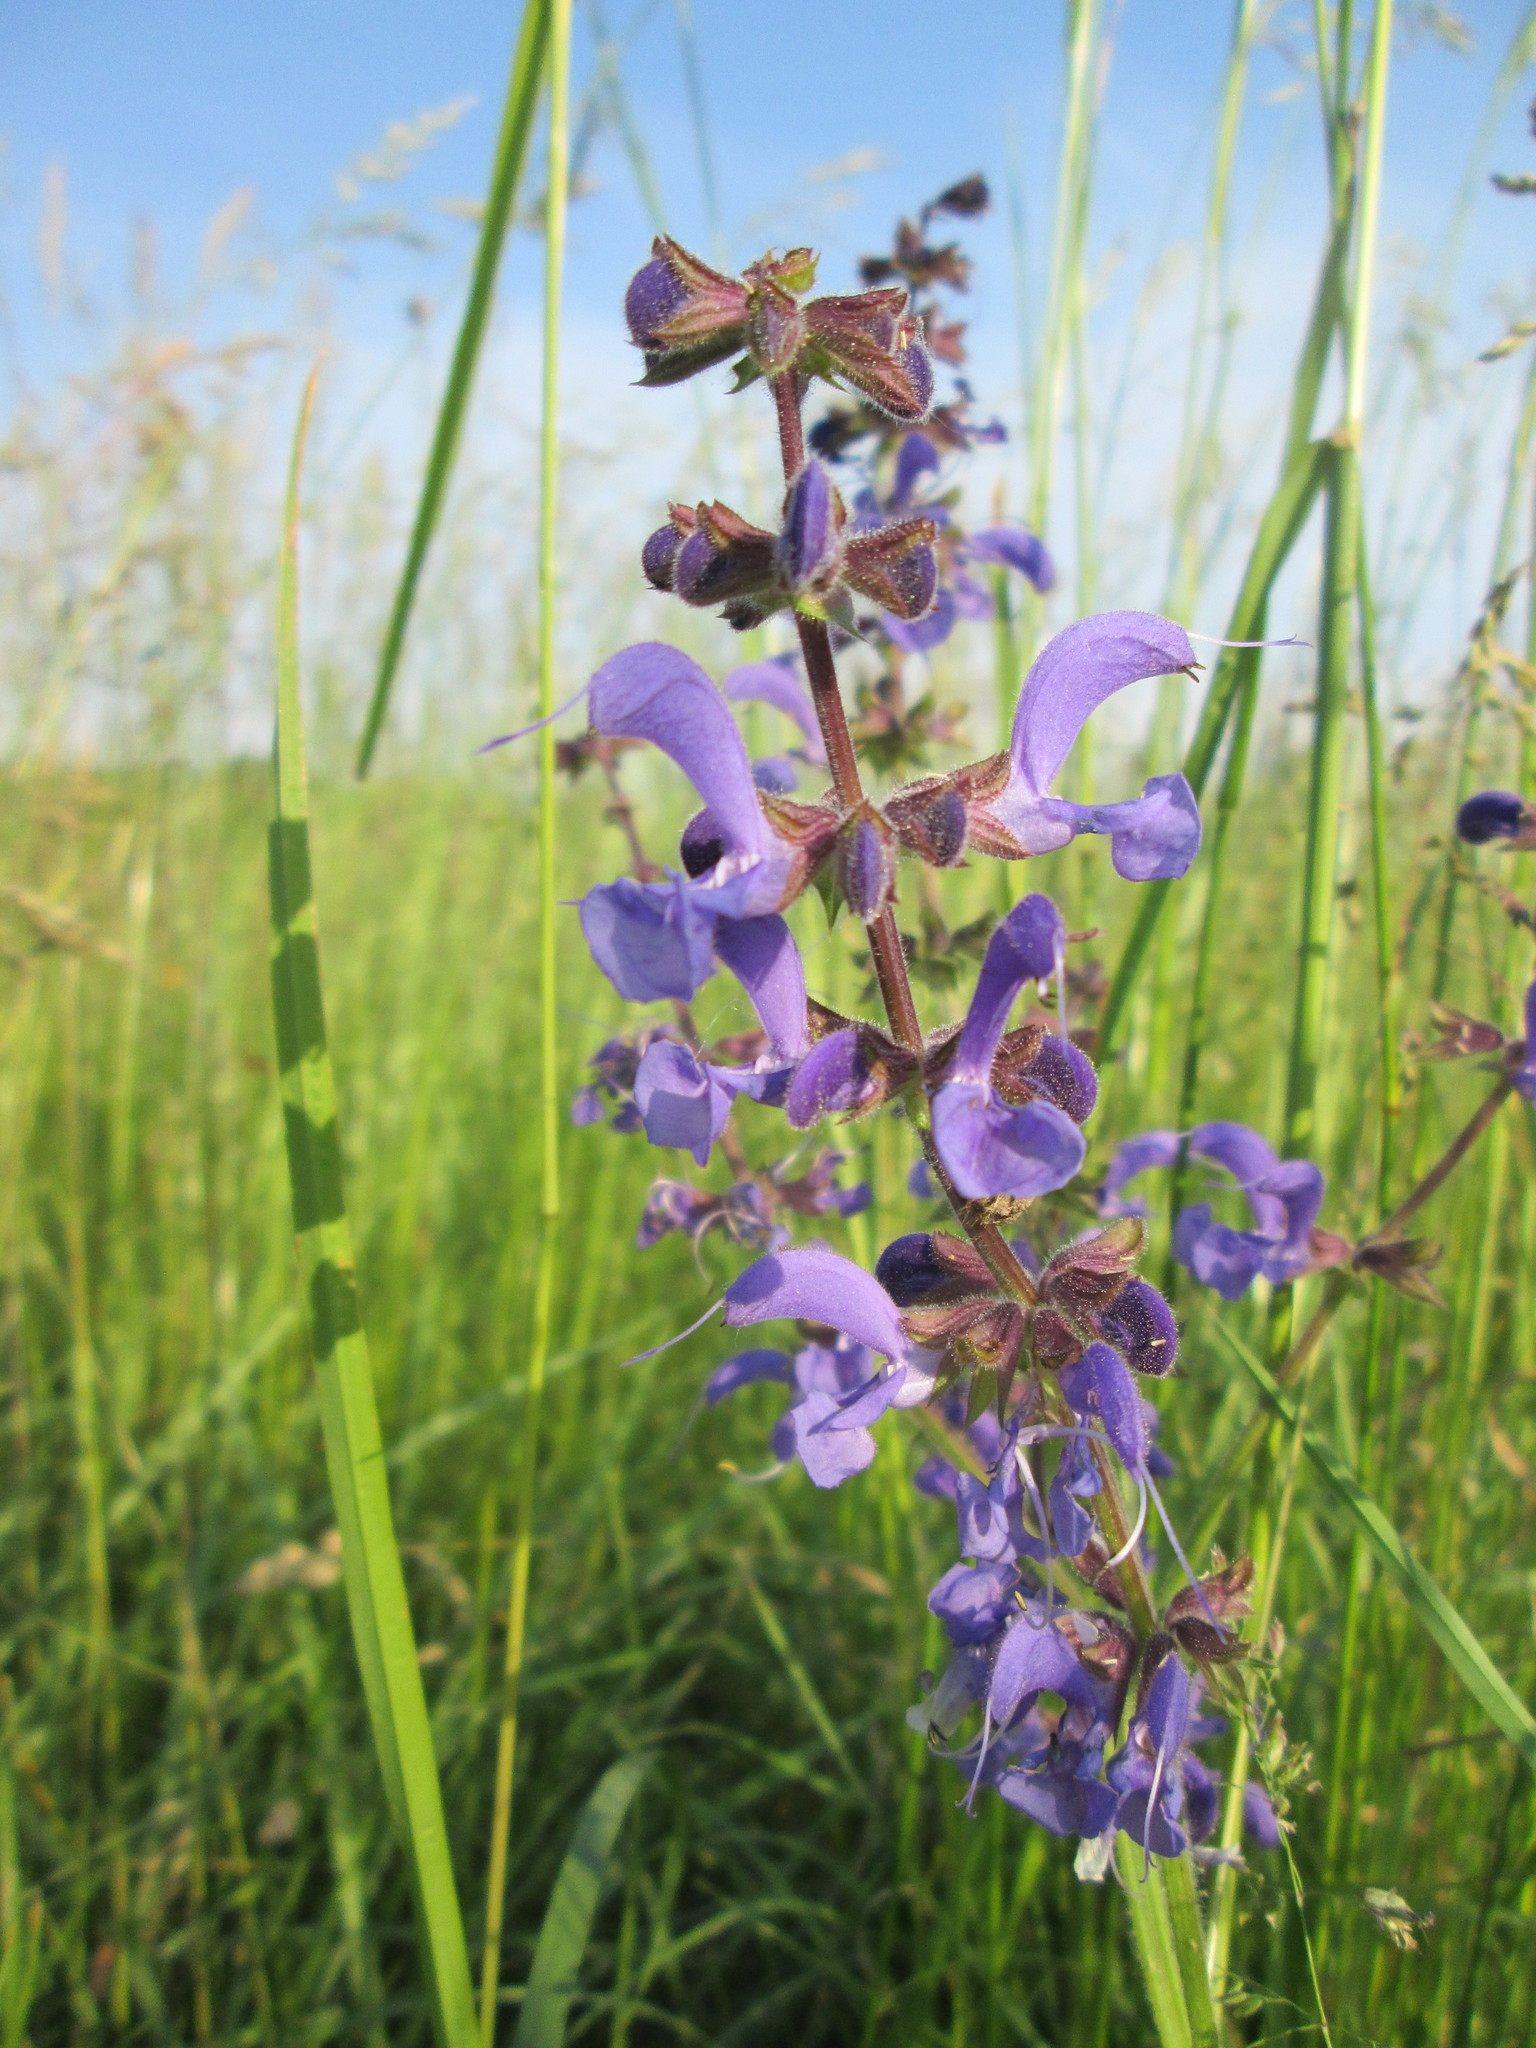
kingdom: Plantae
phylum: Tracheophyta
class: Magnoliopsida
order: Lamiales
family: Lamiaceae
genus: Salvia
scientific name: Salvia pratensis
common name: Meadow sage
